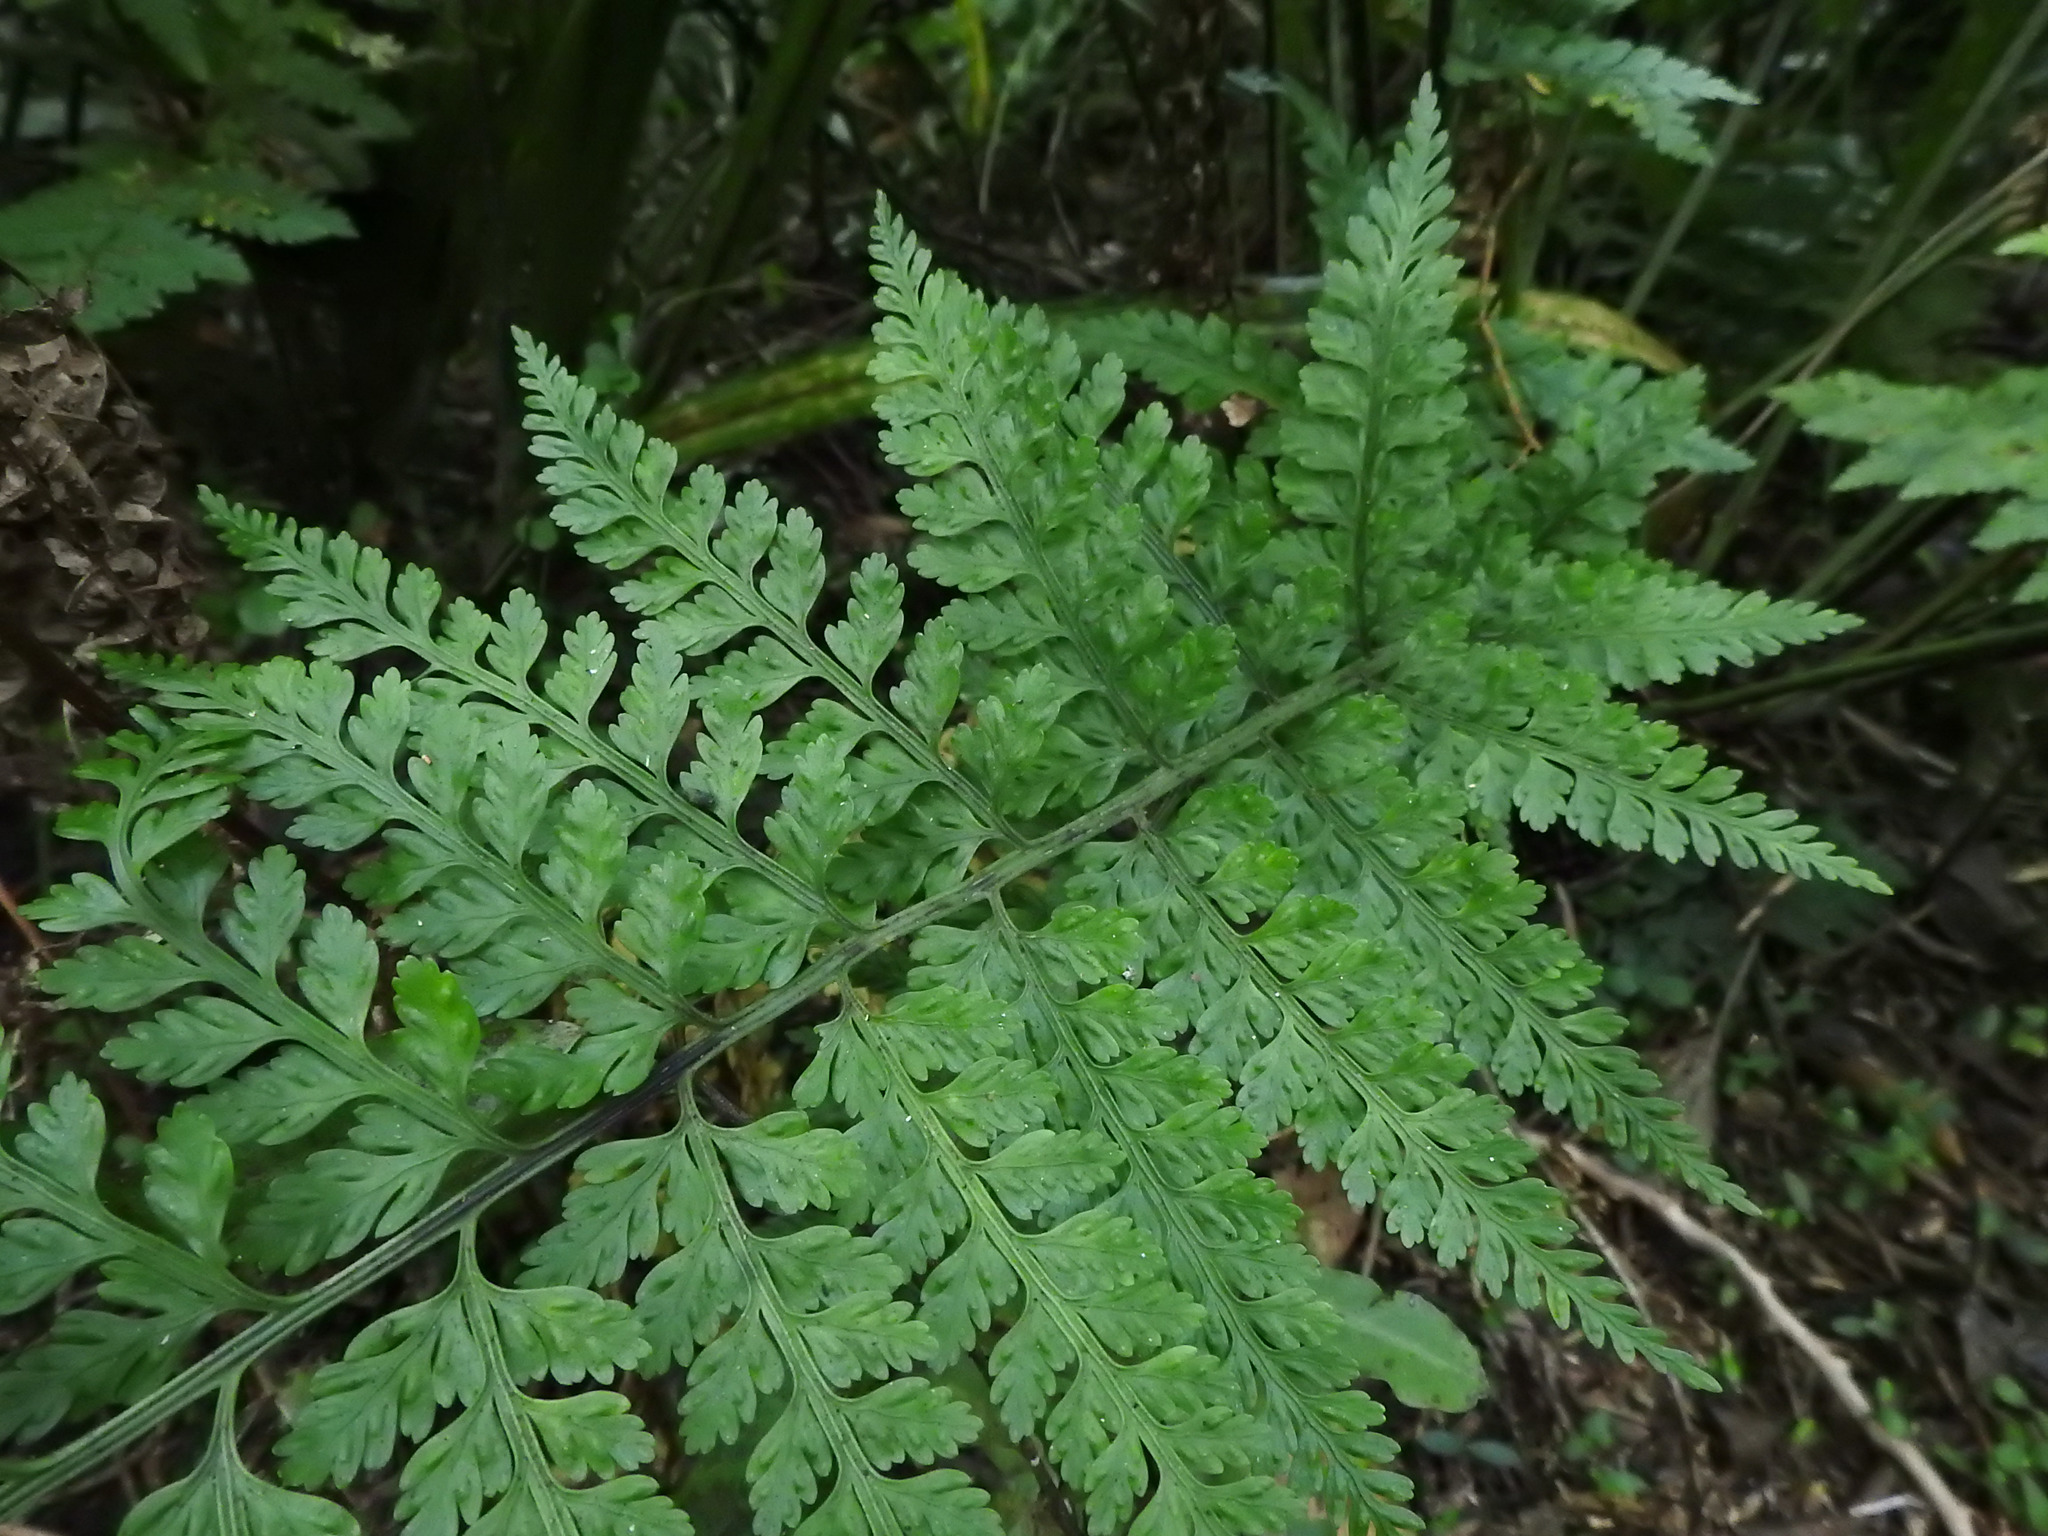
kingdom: Plantae
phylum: Tracheophyta
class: Polypodiopsida
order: Polypodiales
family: Aspleniaceae
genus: Asplenium
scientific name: Asplenium
